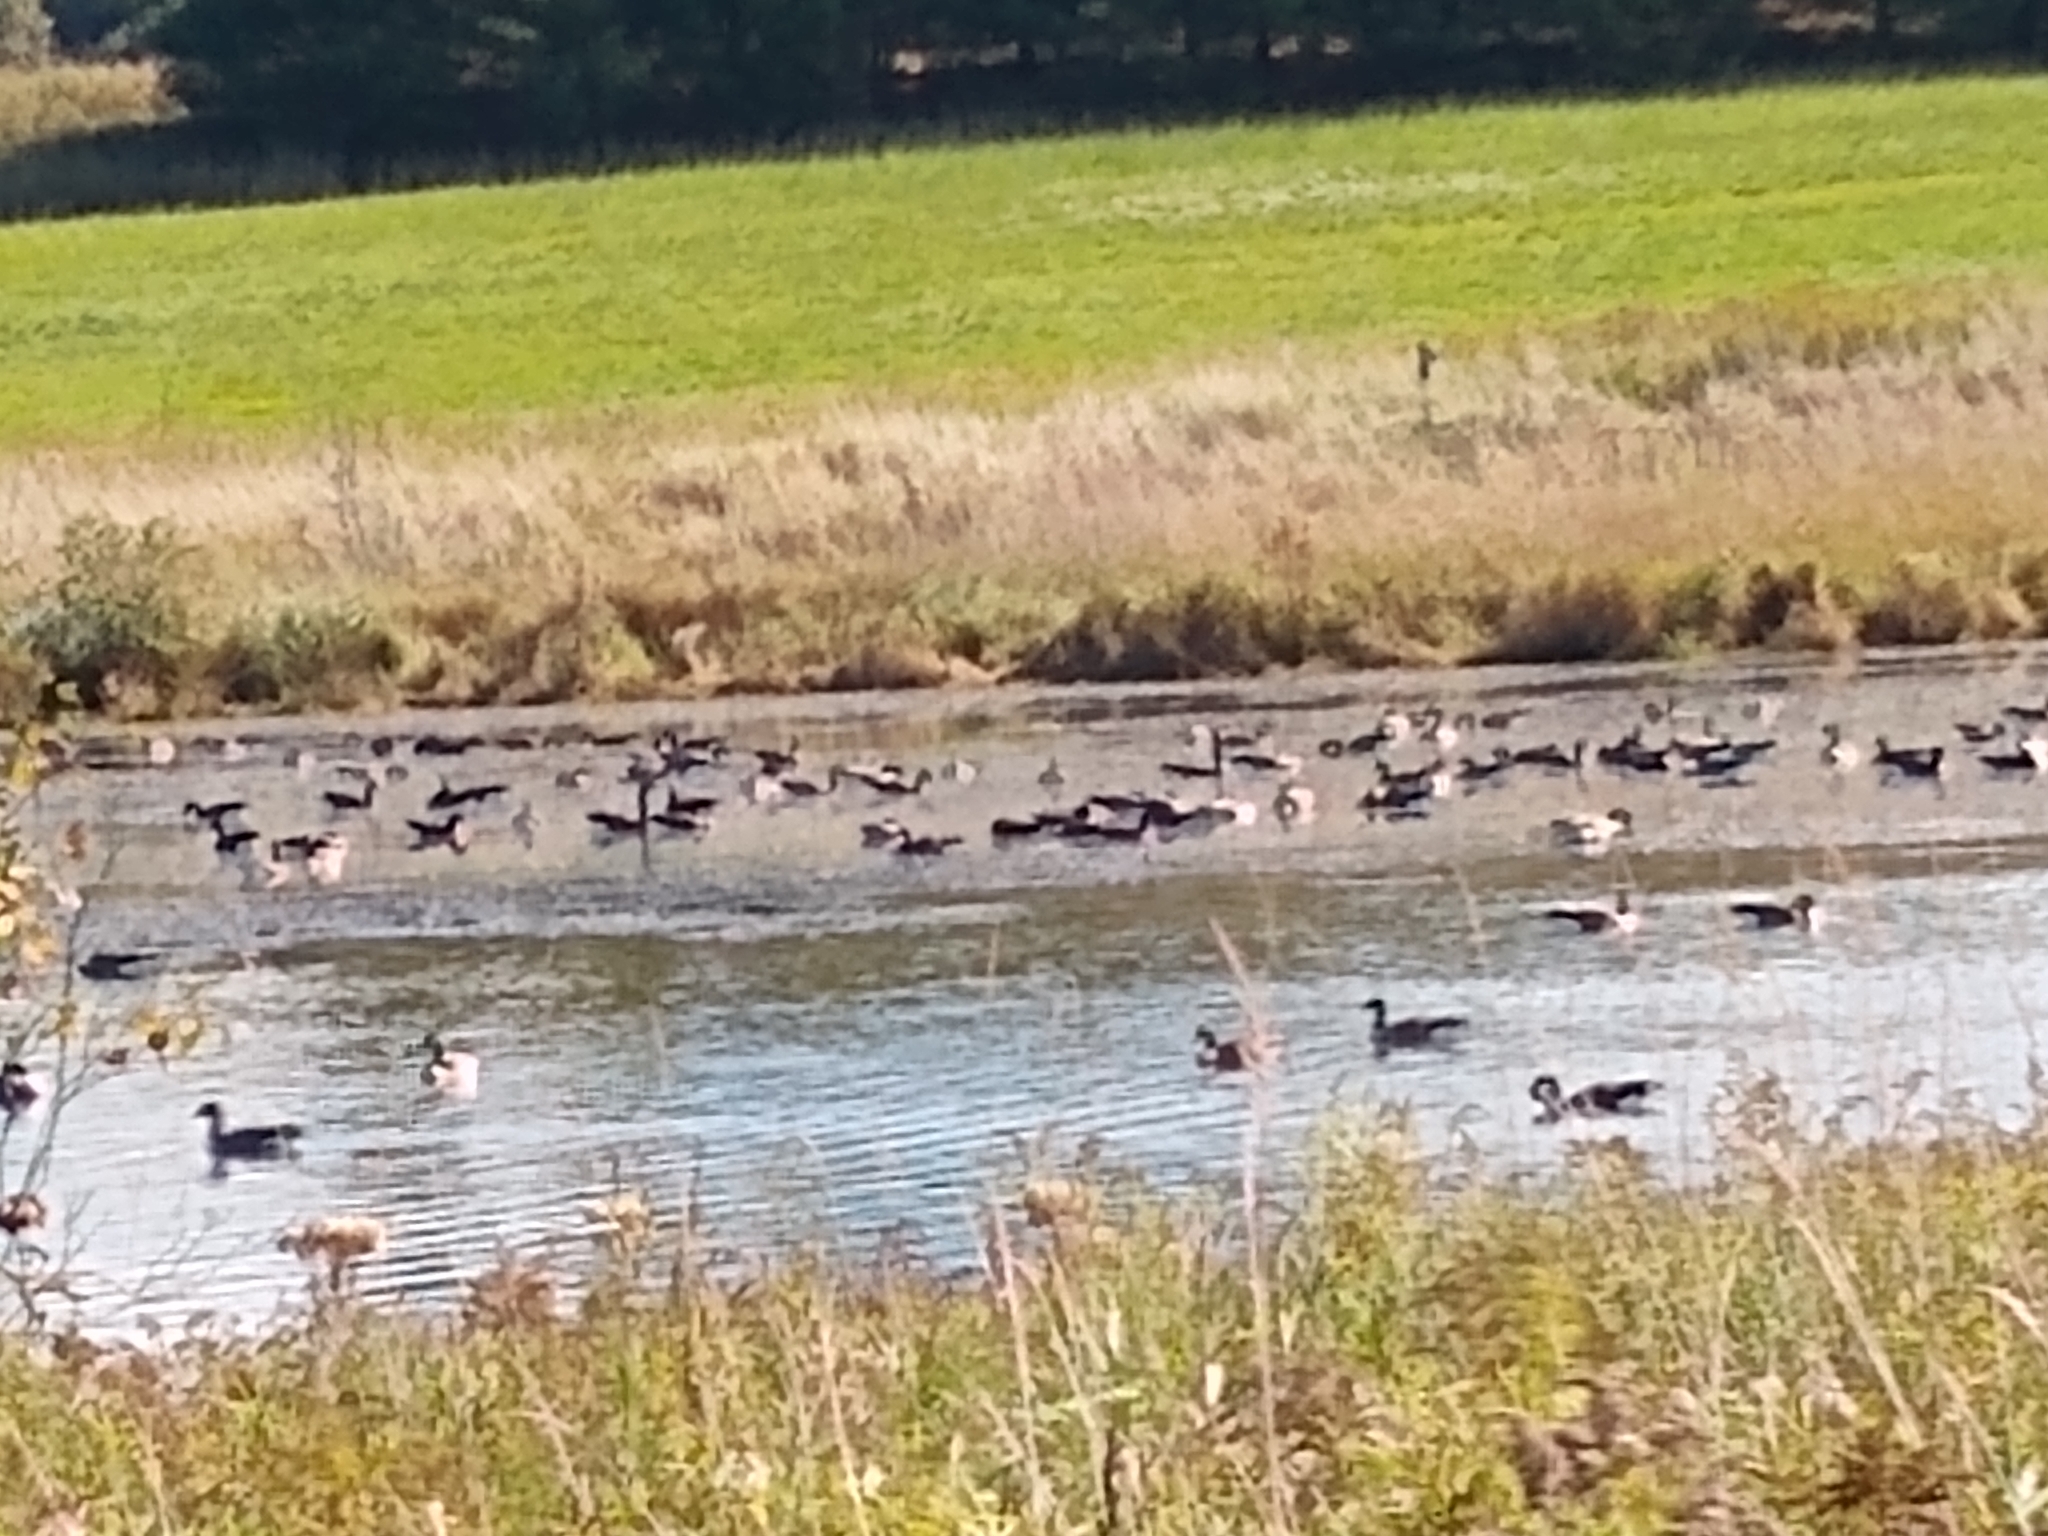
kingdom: Animalia
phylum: Chordata
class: Aves
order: Anseriformes
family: Anatidae
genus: Branta
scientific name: Branta canadensis
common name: Canada goose
